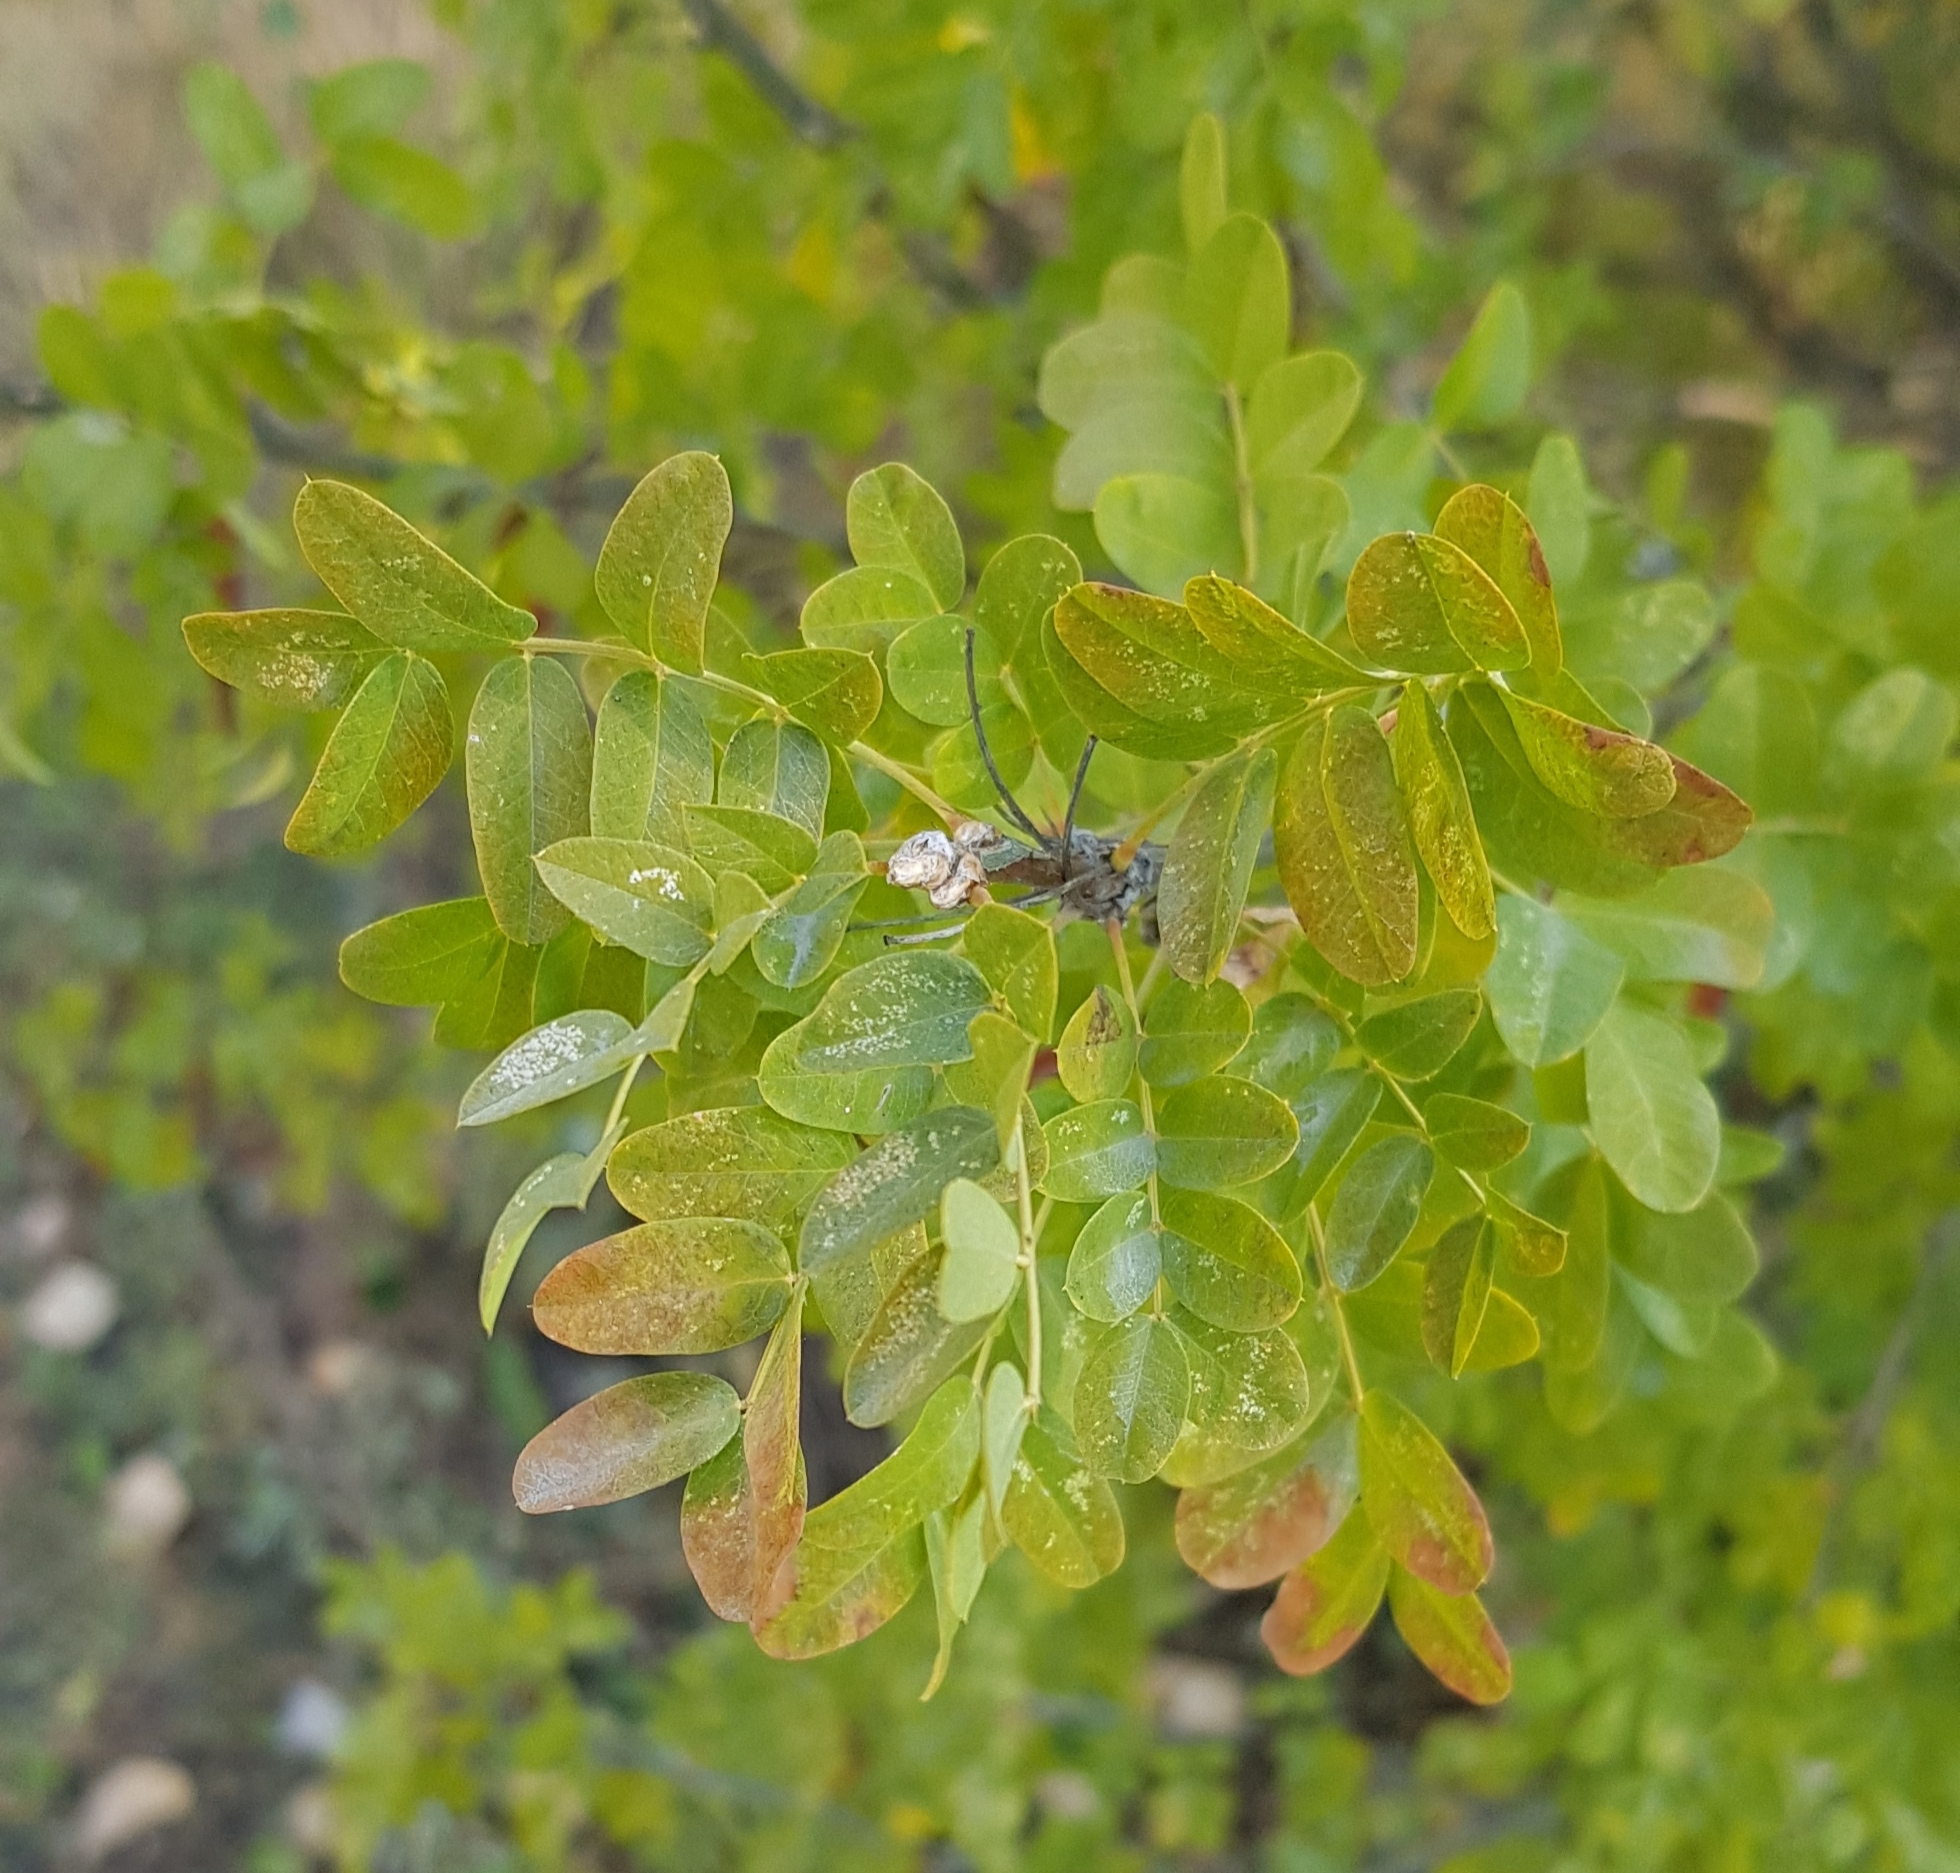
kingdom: Plantae
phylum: Tracheophyta
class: Magnoliopsida
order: Fabales
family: Fabaceae
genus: Caragana
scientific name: Caragana arborescens
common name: Siberian peashrub
